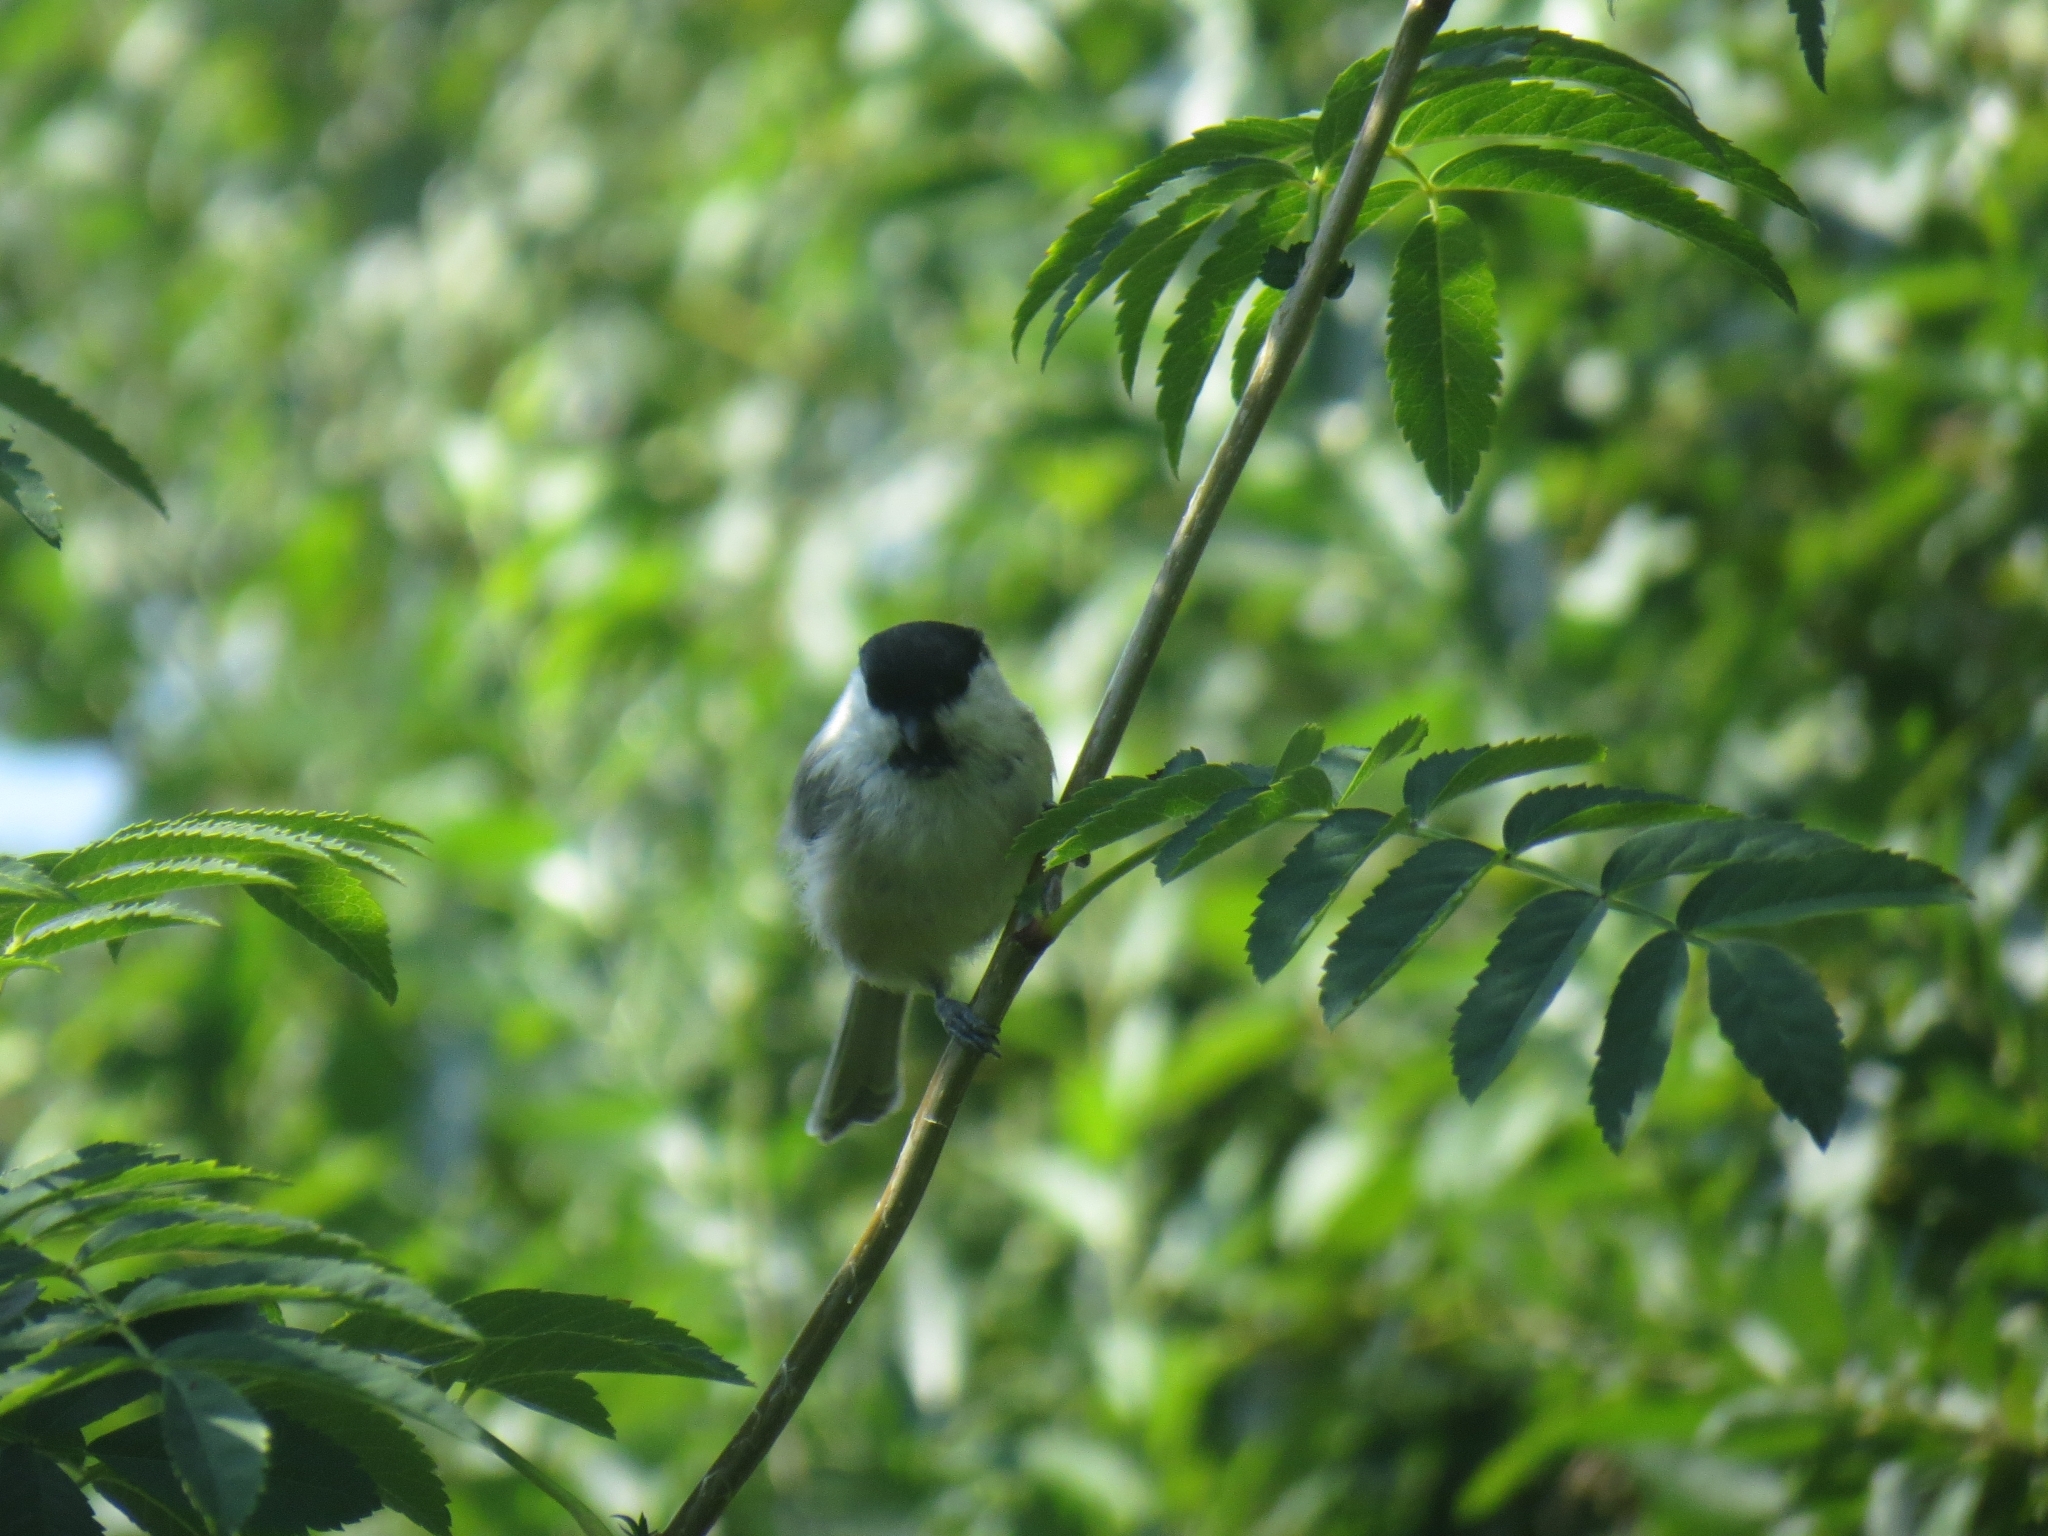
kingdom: Animalia
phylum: Chordata
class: Aves
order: Passeriformes
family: Paridae
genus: Poecile
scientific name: Poecile montanus
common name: Willow tit
